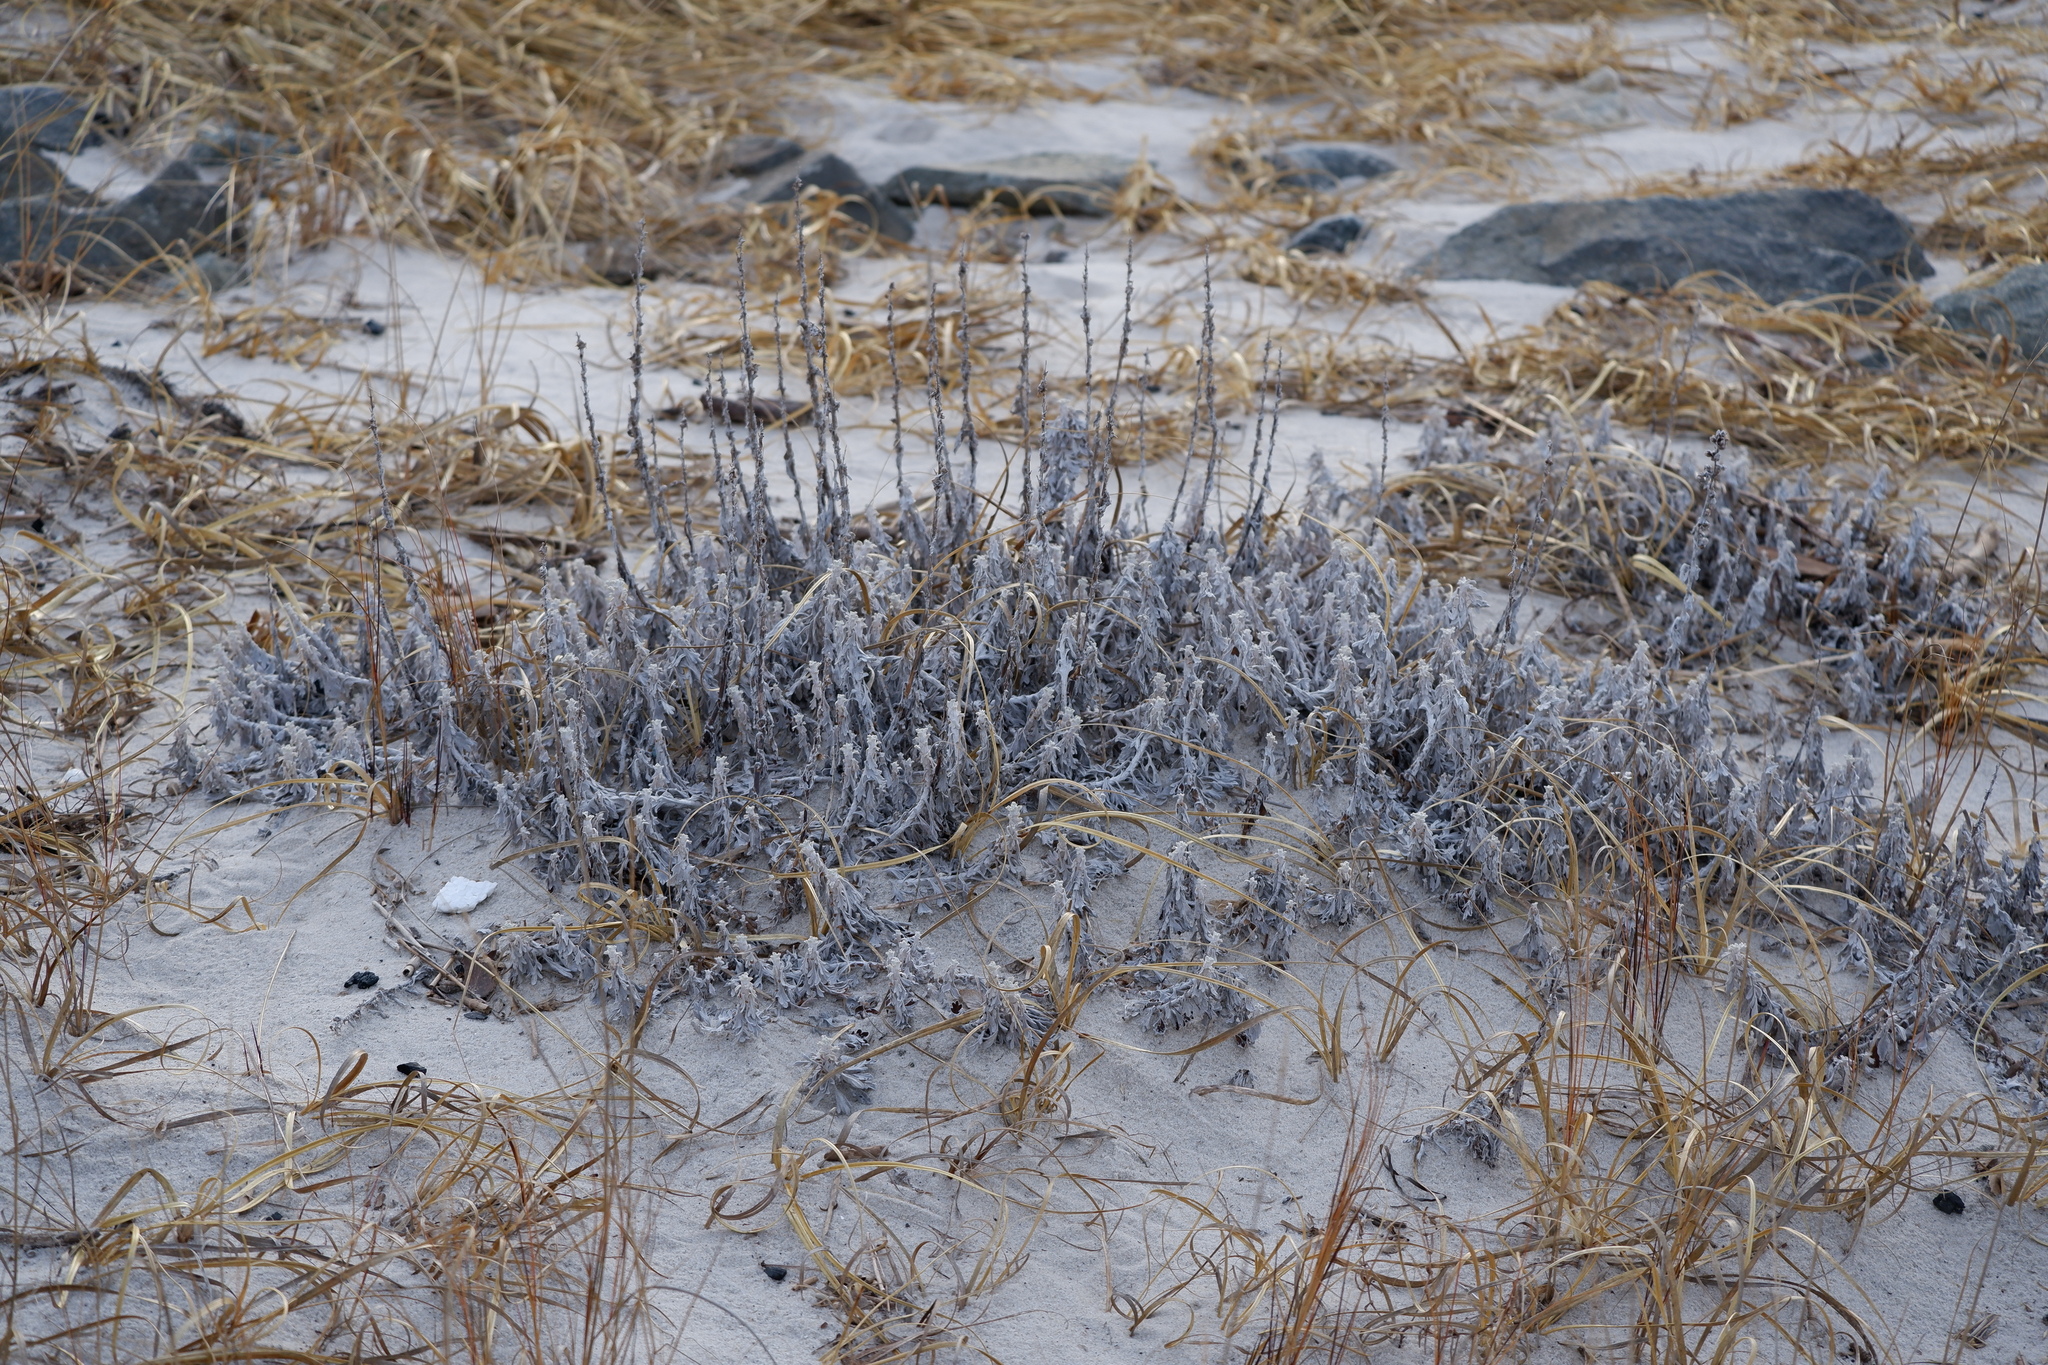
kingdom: Plantae
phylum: Tracheophyta
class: Magnoliopsida
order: Asterales
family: Asteraceae
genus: Artemisia
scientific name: Artemisia stelleriana
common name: Beach wormwood
